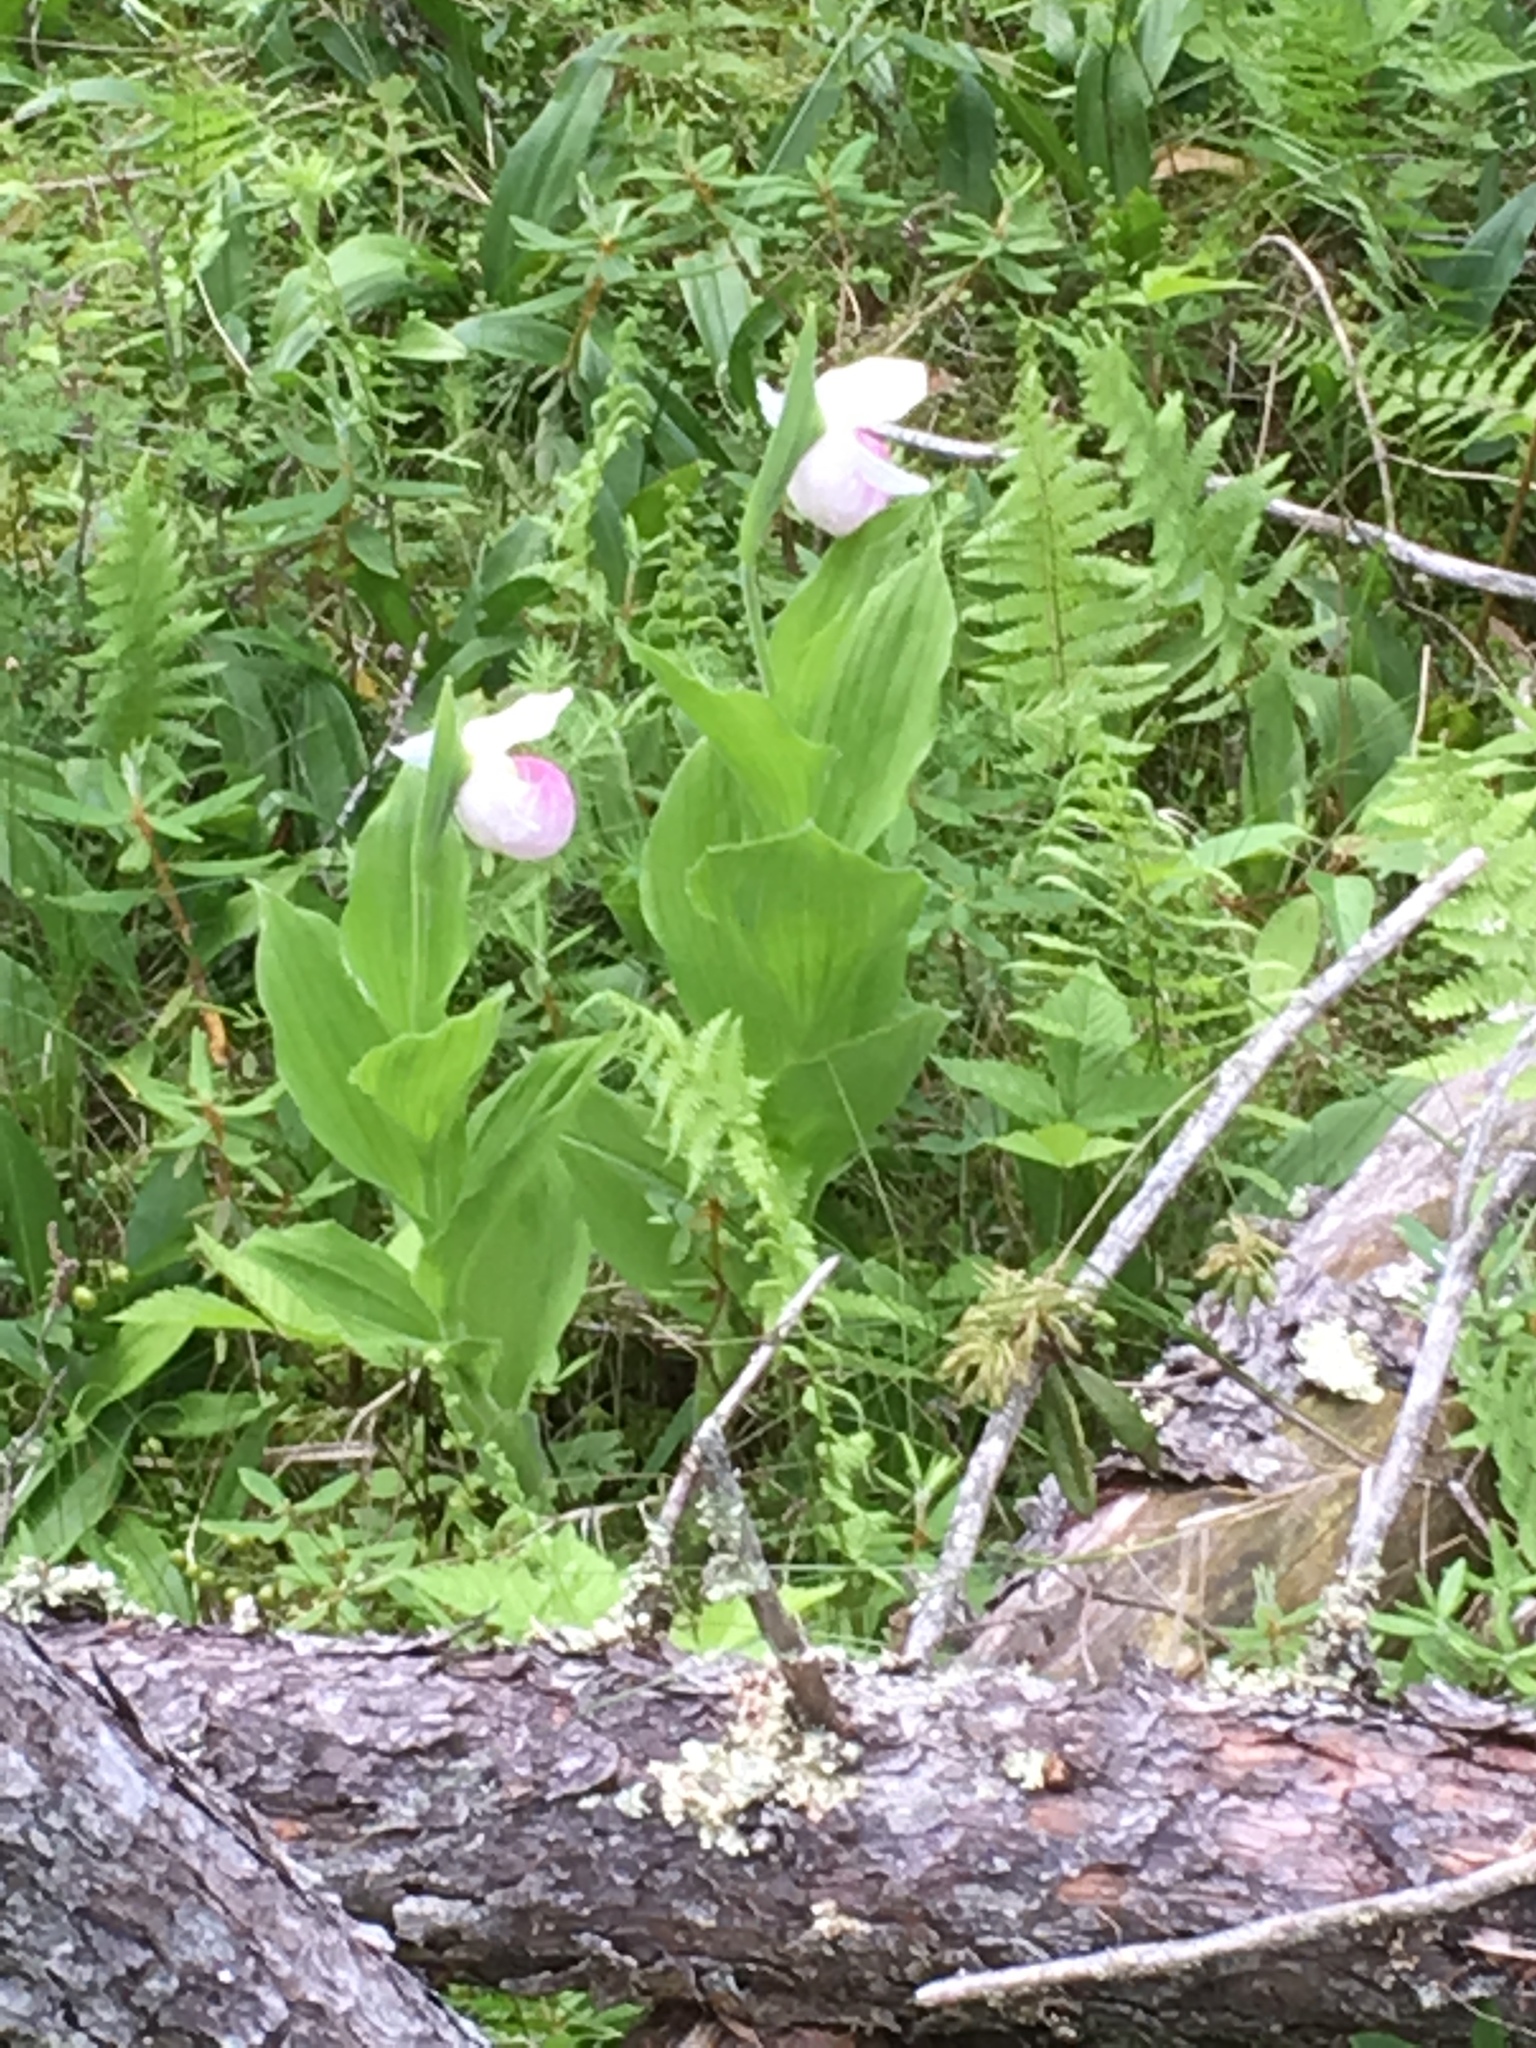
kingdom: Plantae
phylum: Tracheophyta
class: Liliopsida
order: Asparagales
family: Orchidaceae
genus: Cypripedium
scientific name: Cypripedium reginae
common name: Queen lady's-slipper
